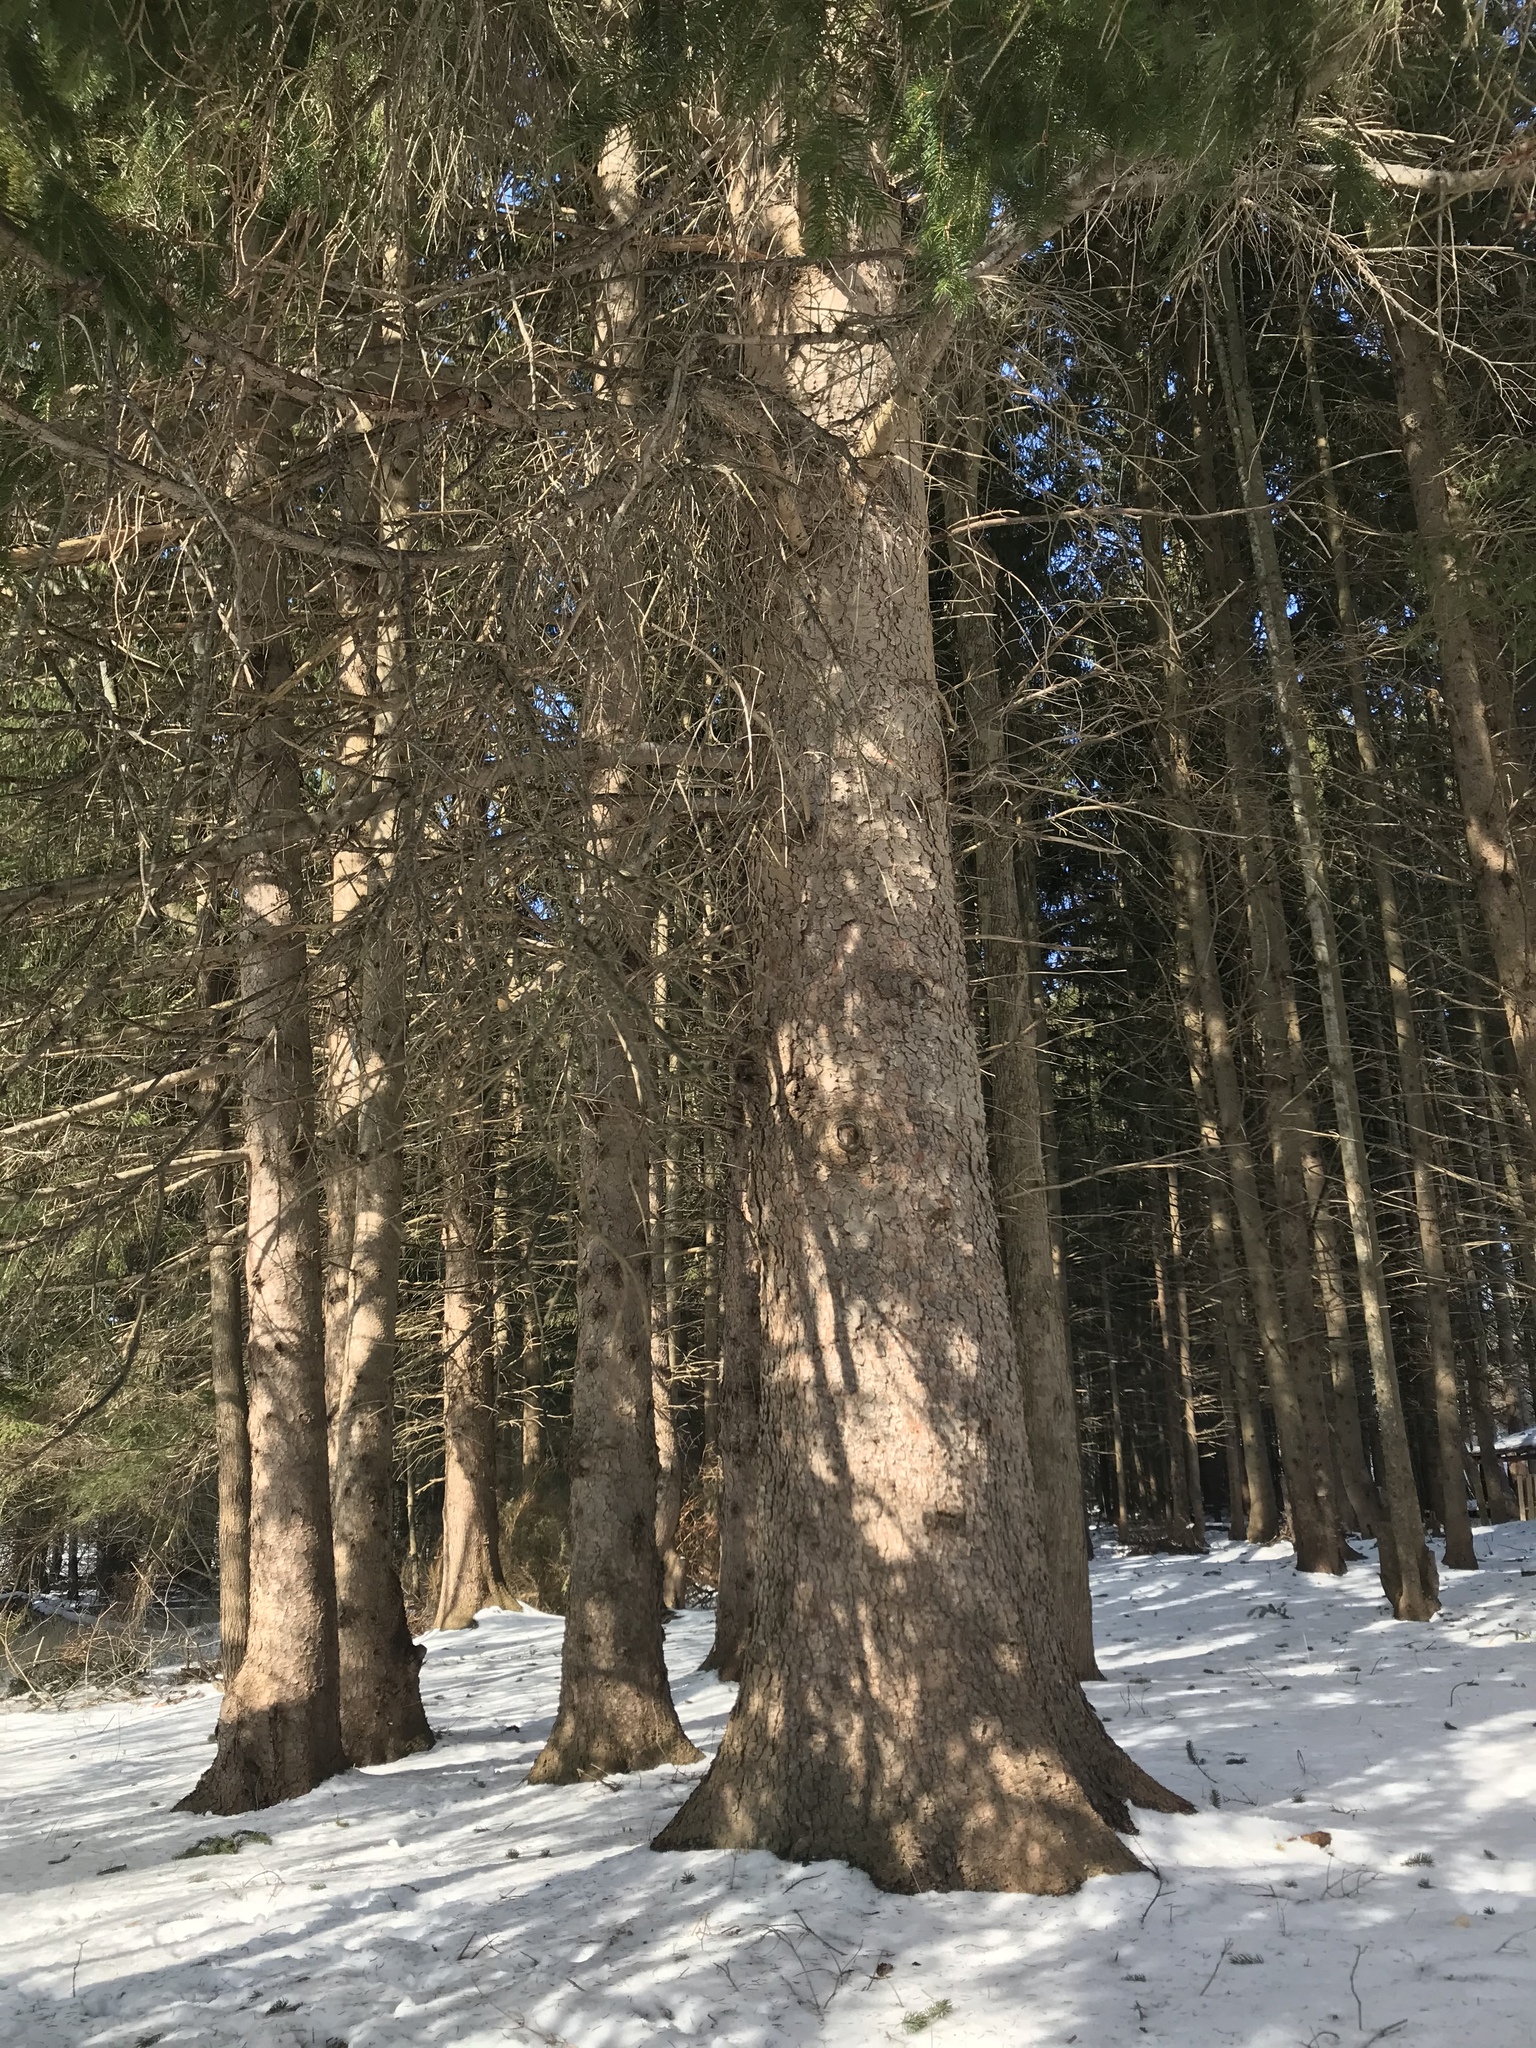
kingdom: Plantae
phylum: Tracheophyta
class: Pinopsida
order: Pinales
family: Pinaceae
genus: Picea
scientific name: Picea abies
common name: Norway spruce
